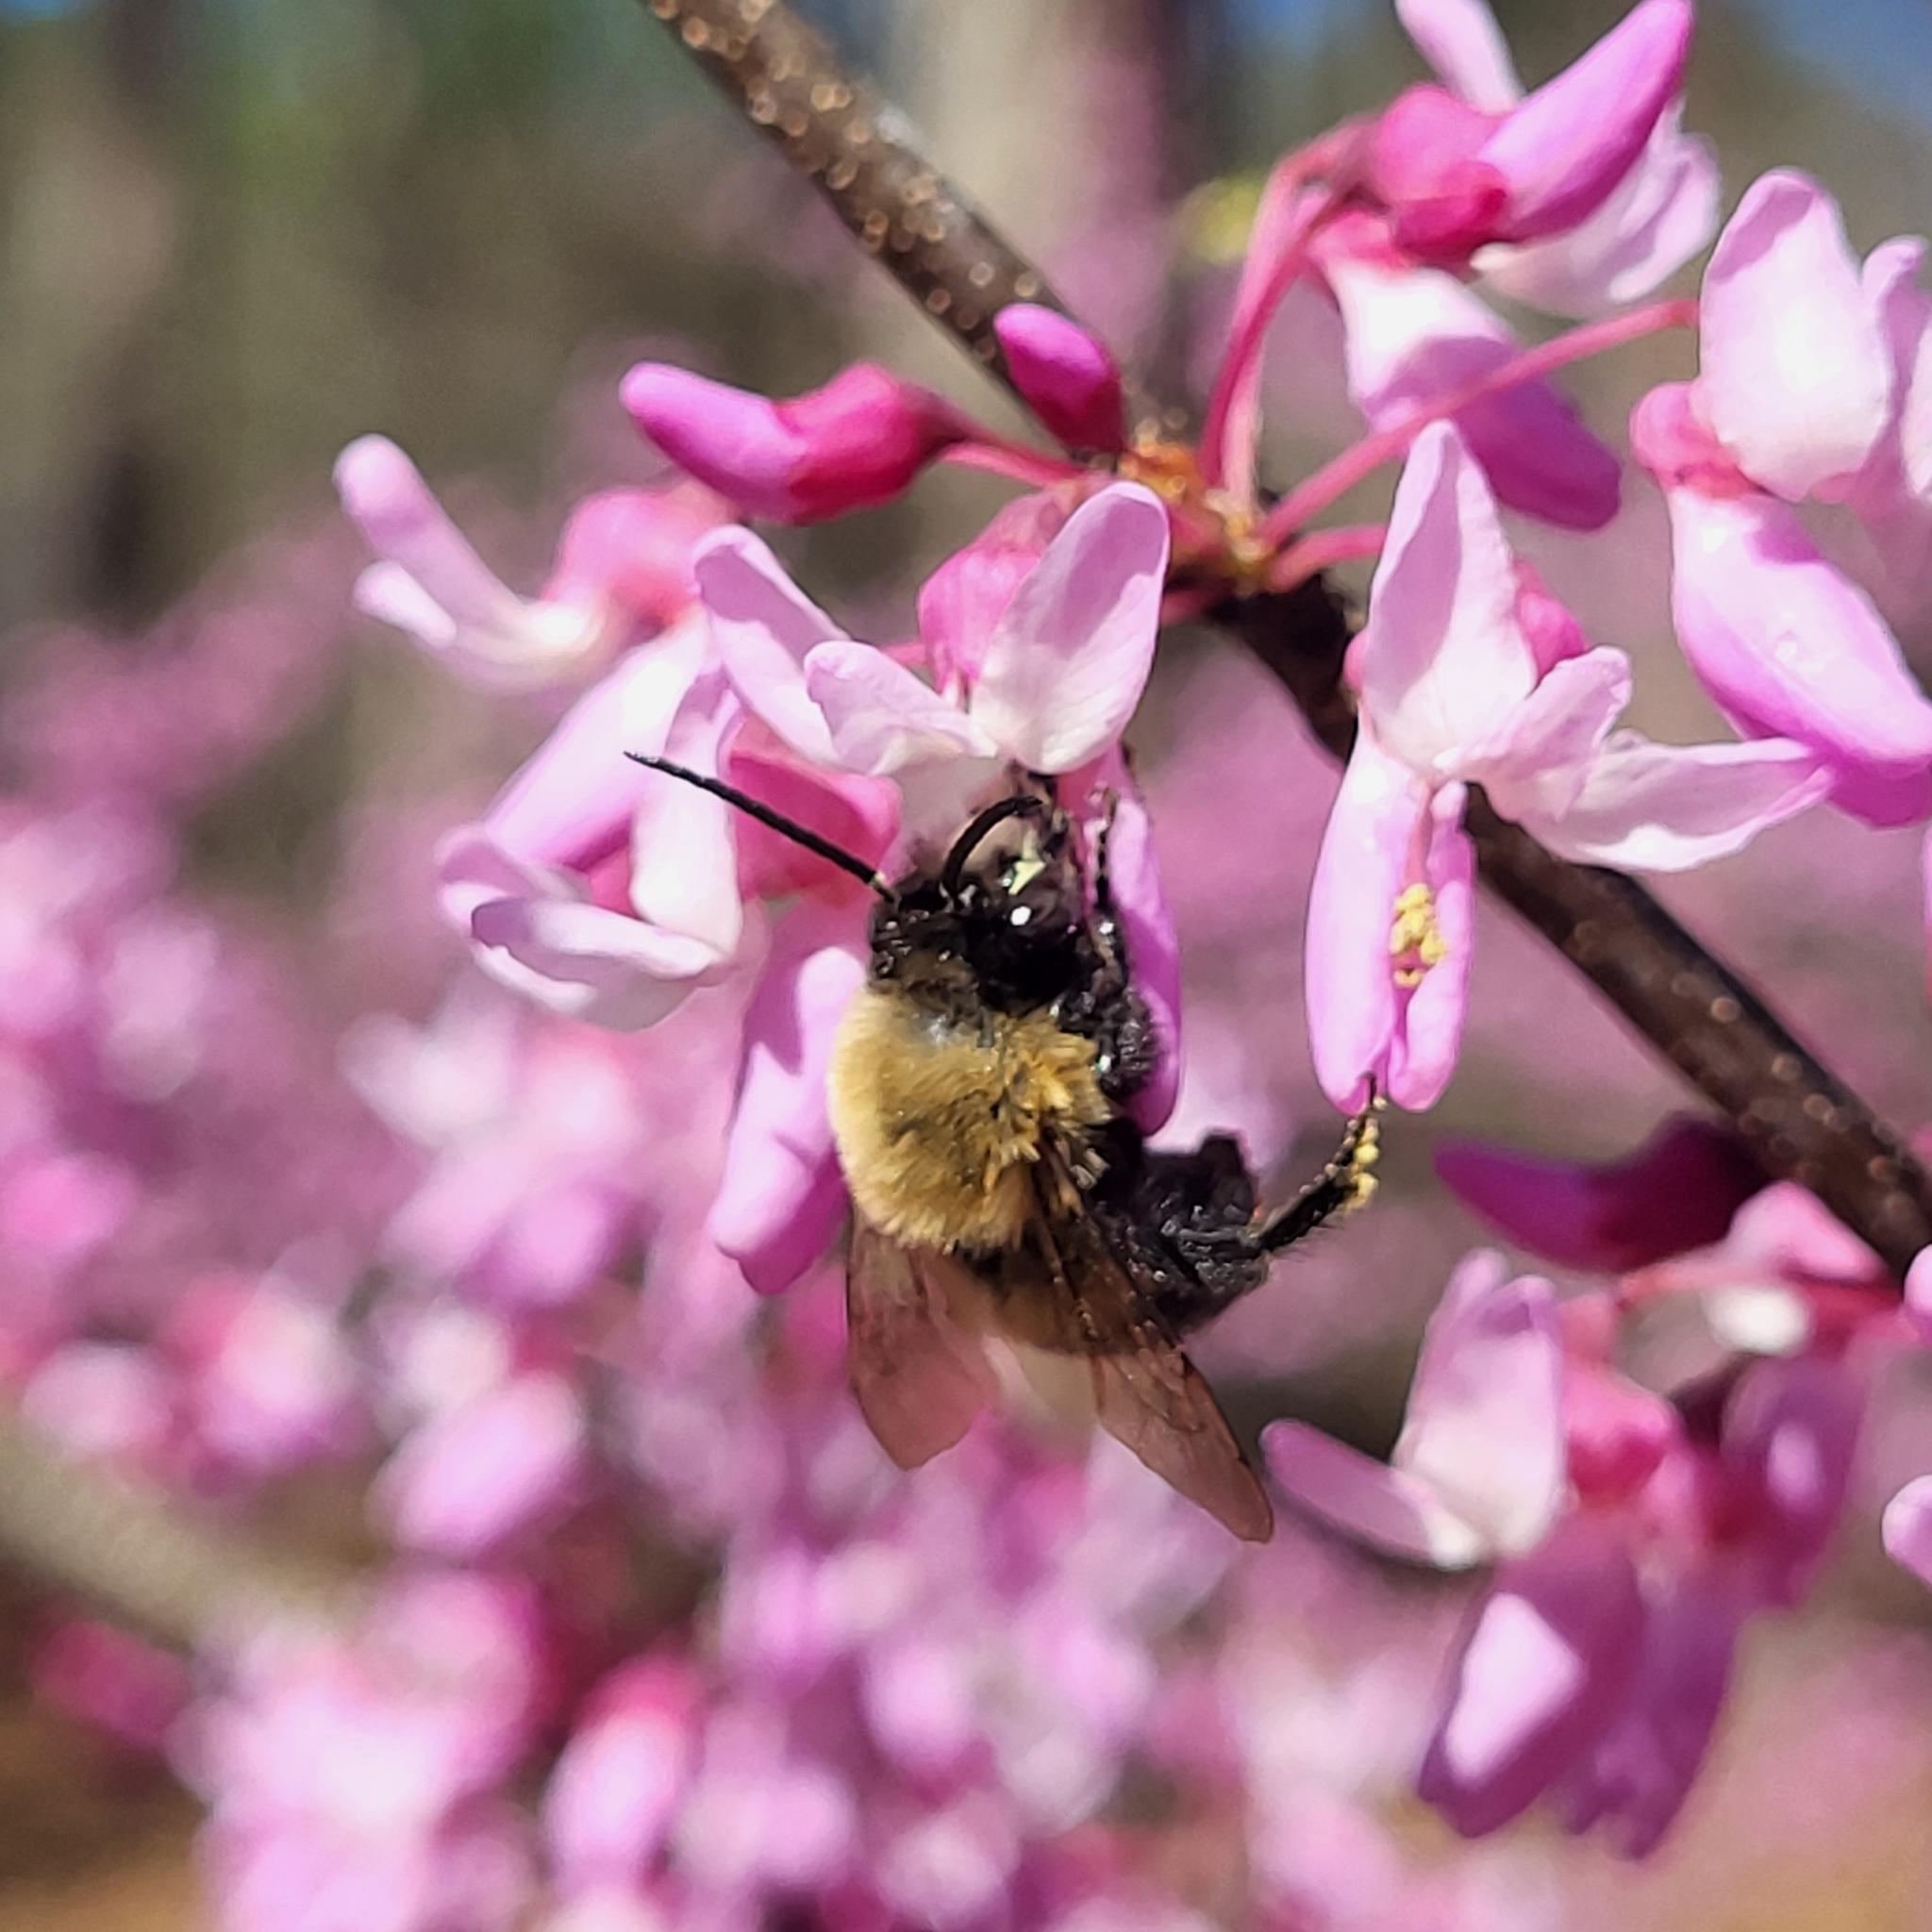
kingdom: Animalia
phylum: Arthropoda
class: Insecta
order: Hymenoptera
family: Apidae
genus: Habropoda
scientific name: Habropoda laboriosa
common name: Southeastern blueberry bee
